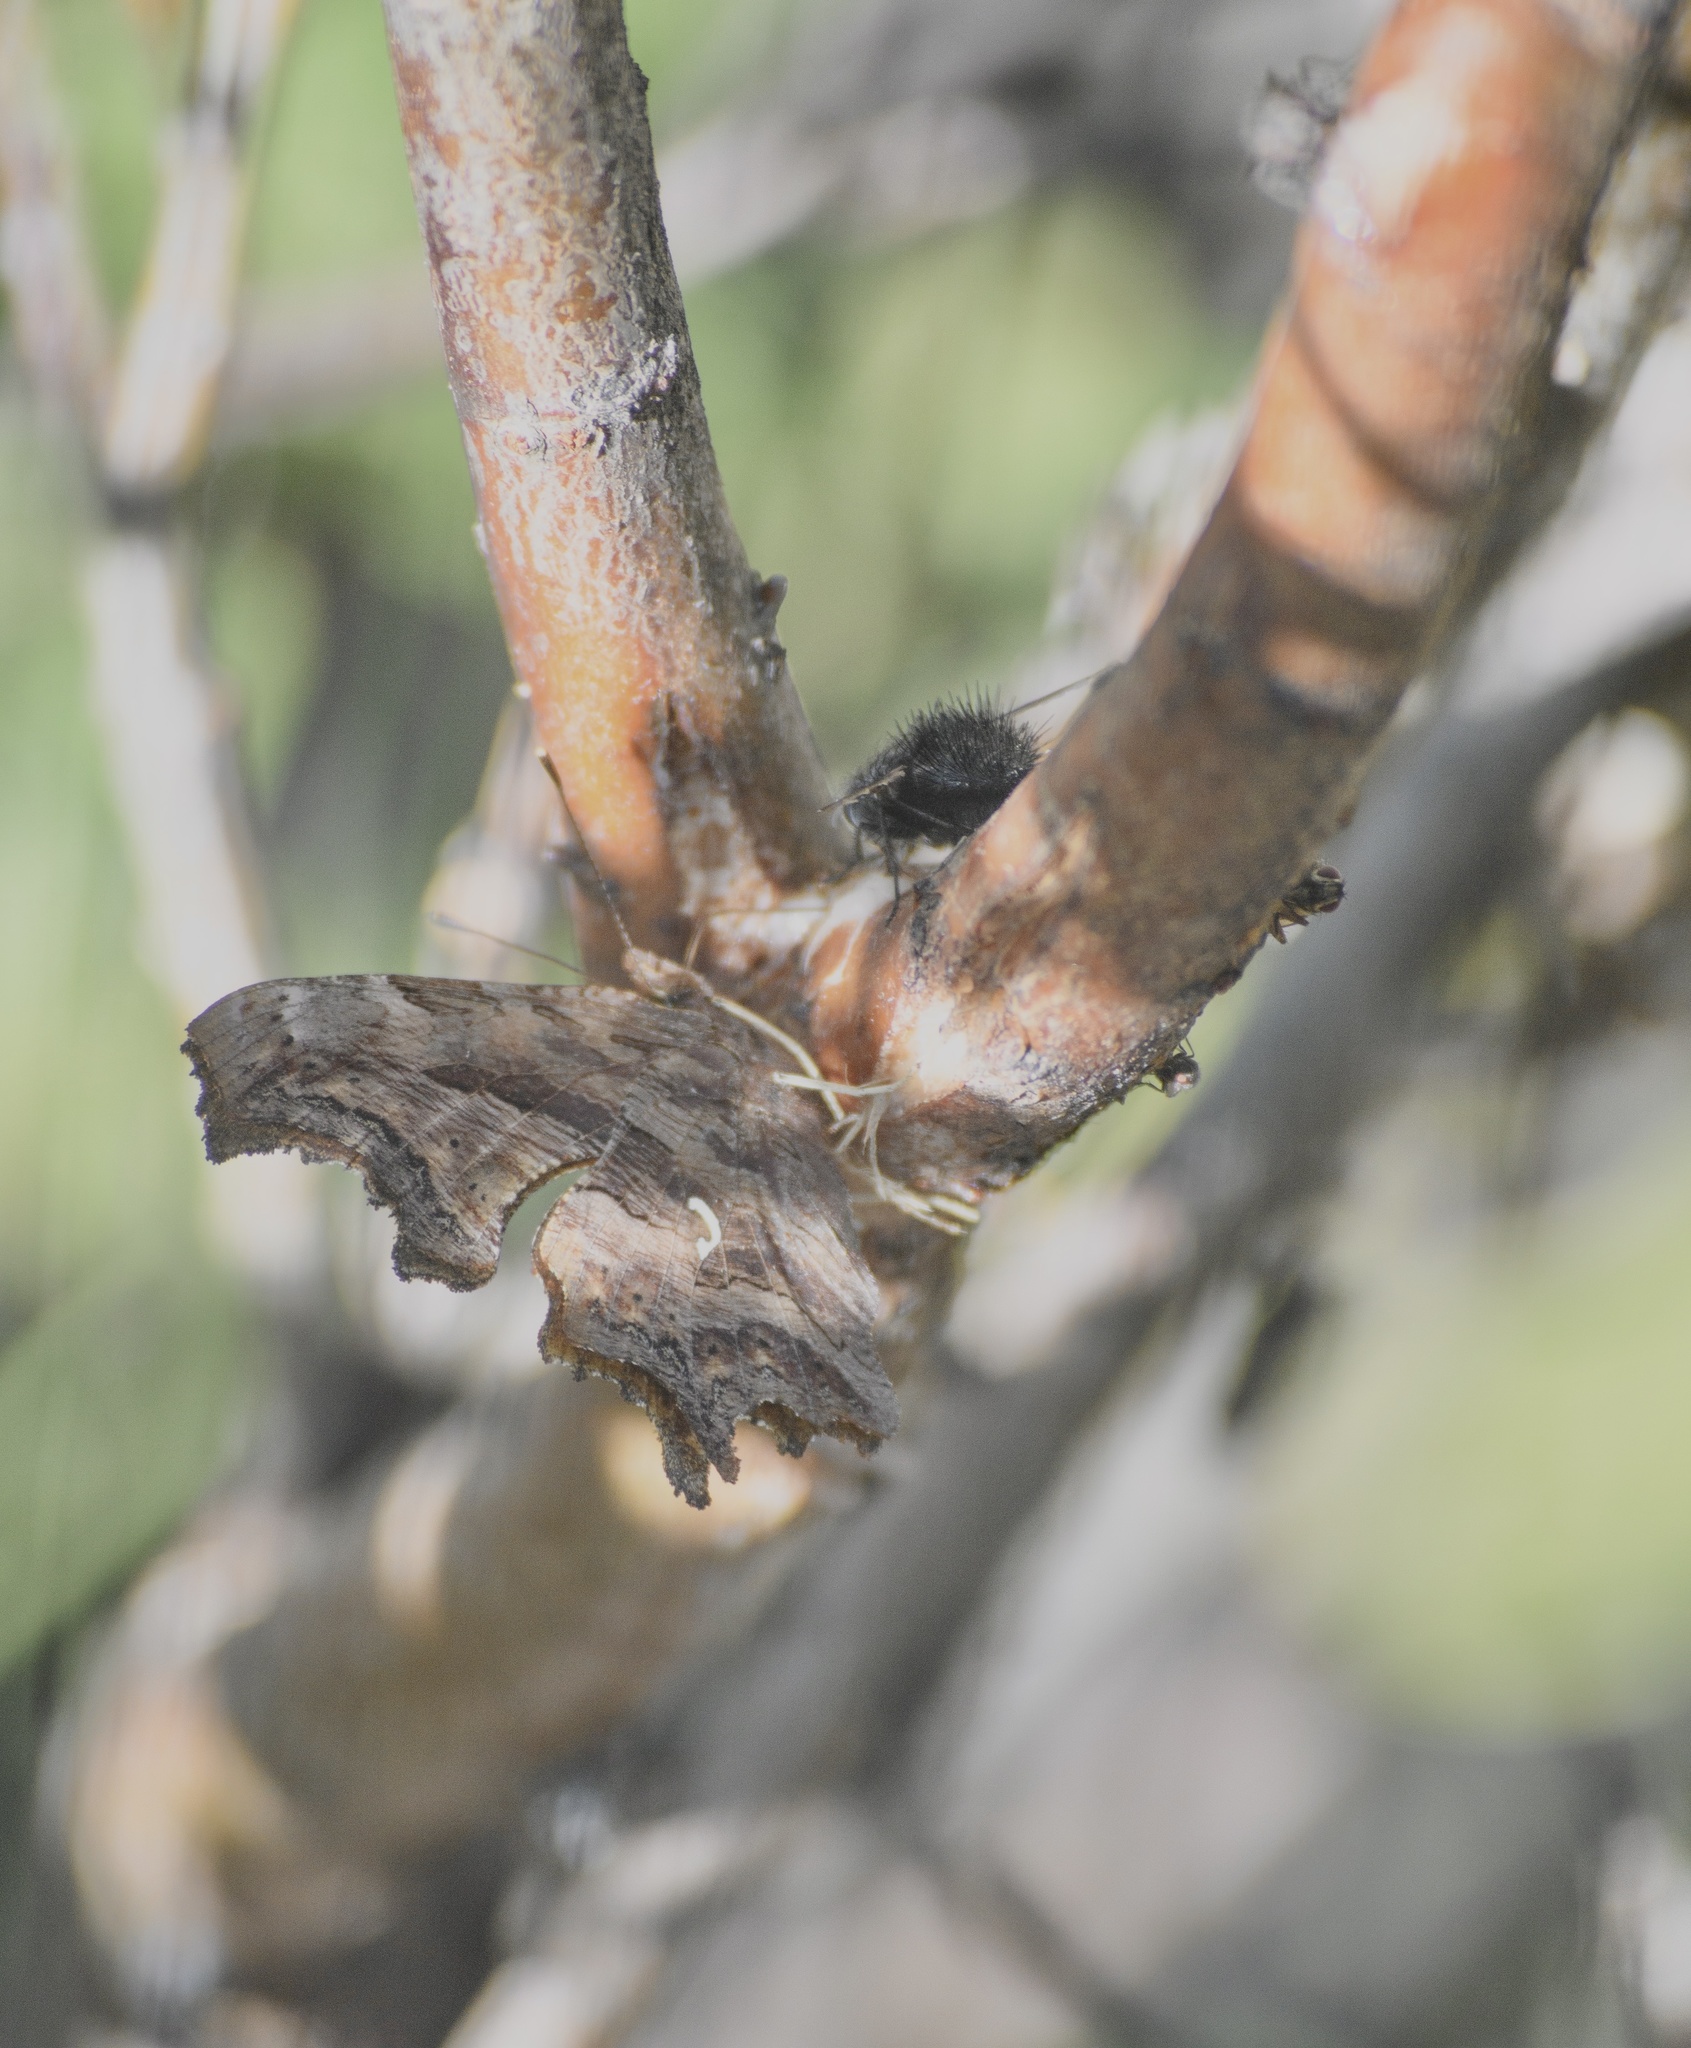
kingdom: Animalia
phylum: Arthropoda
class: Insecta
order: Lepidoptera
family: Nymphalidae
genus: Polygonia
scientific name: Polygonia satyrus
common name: Satyr angle wing
